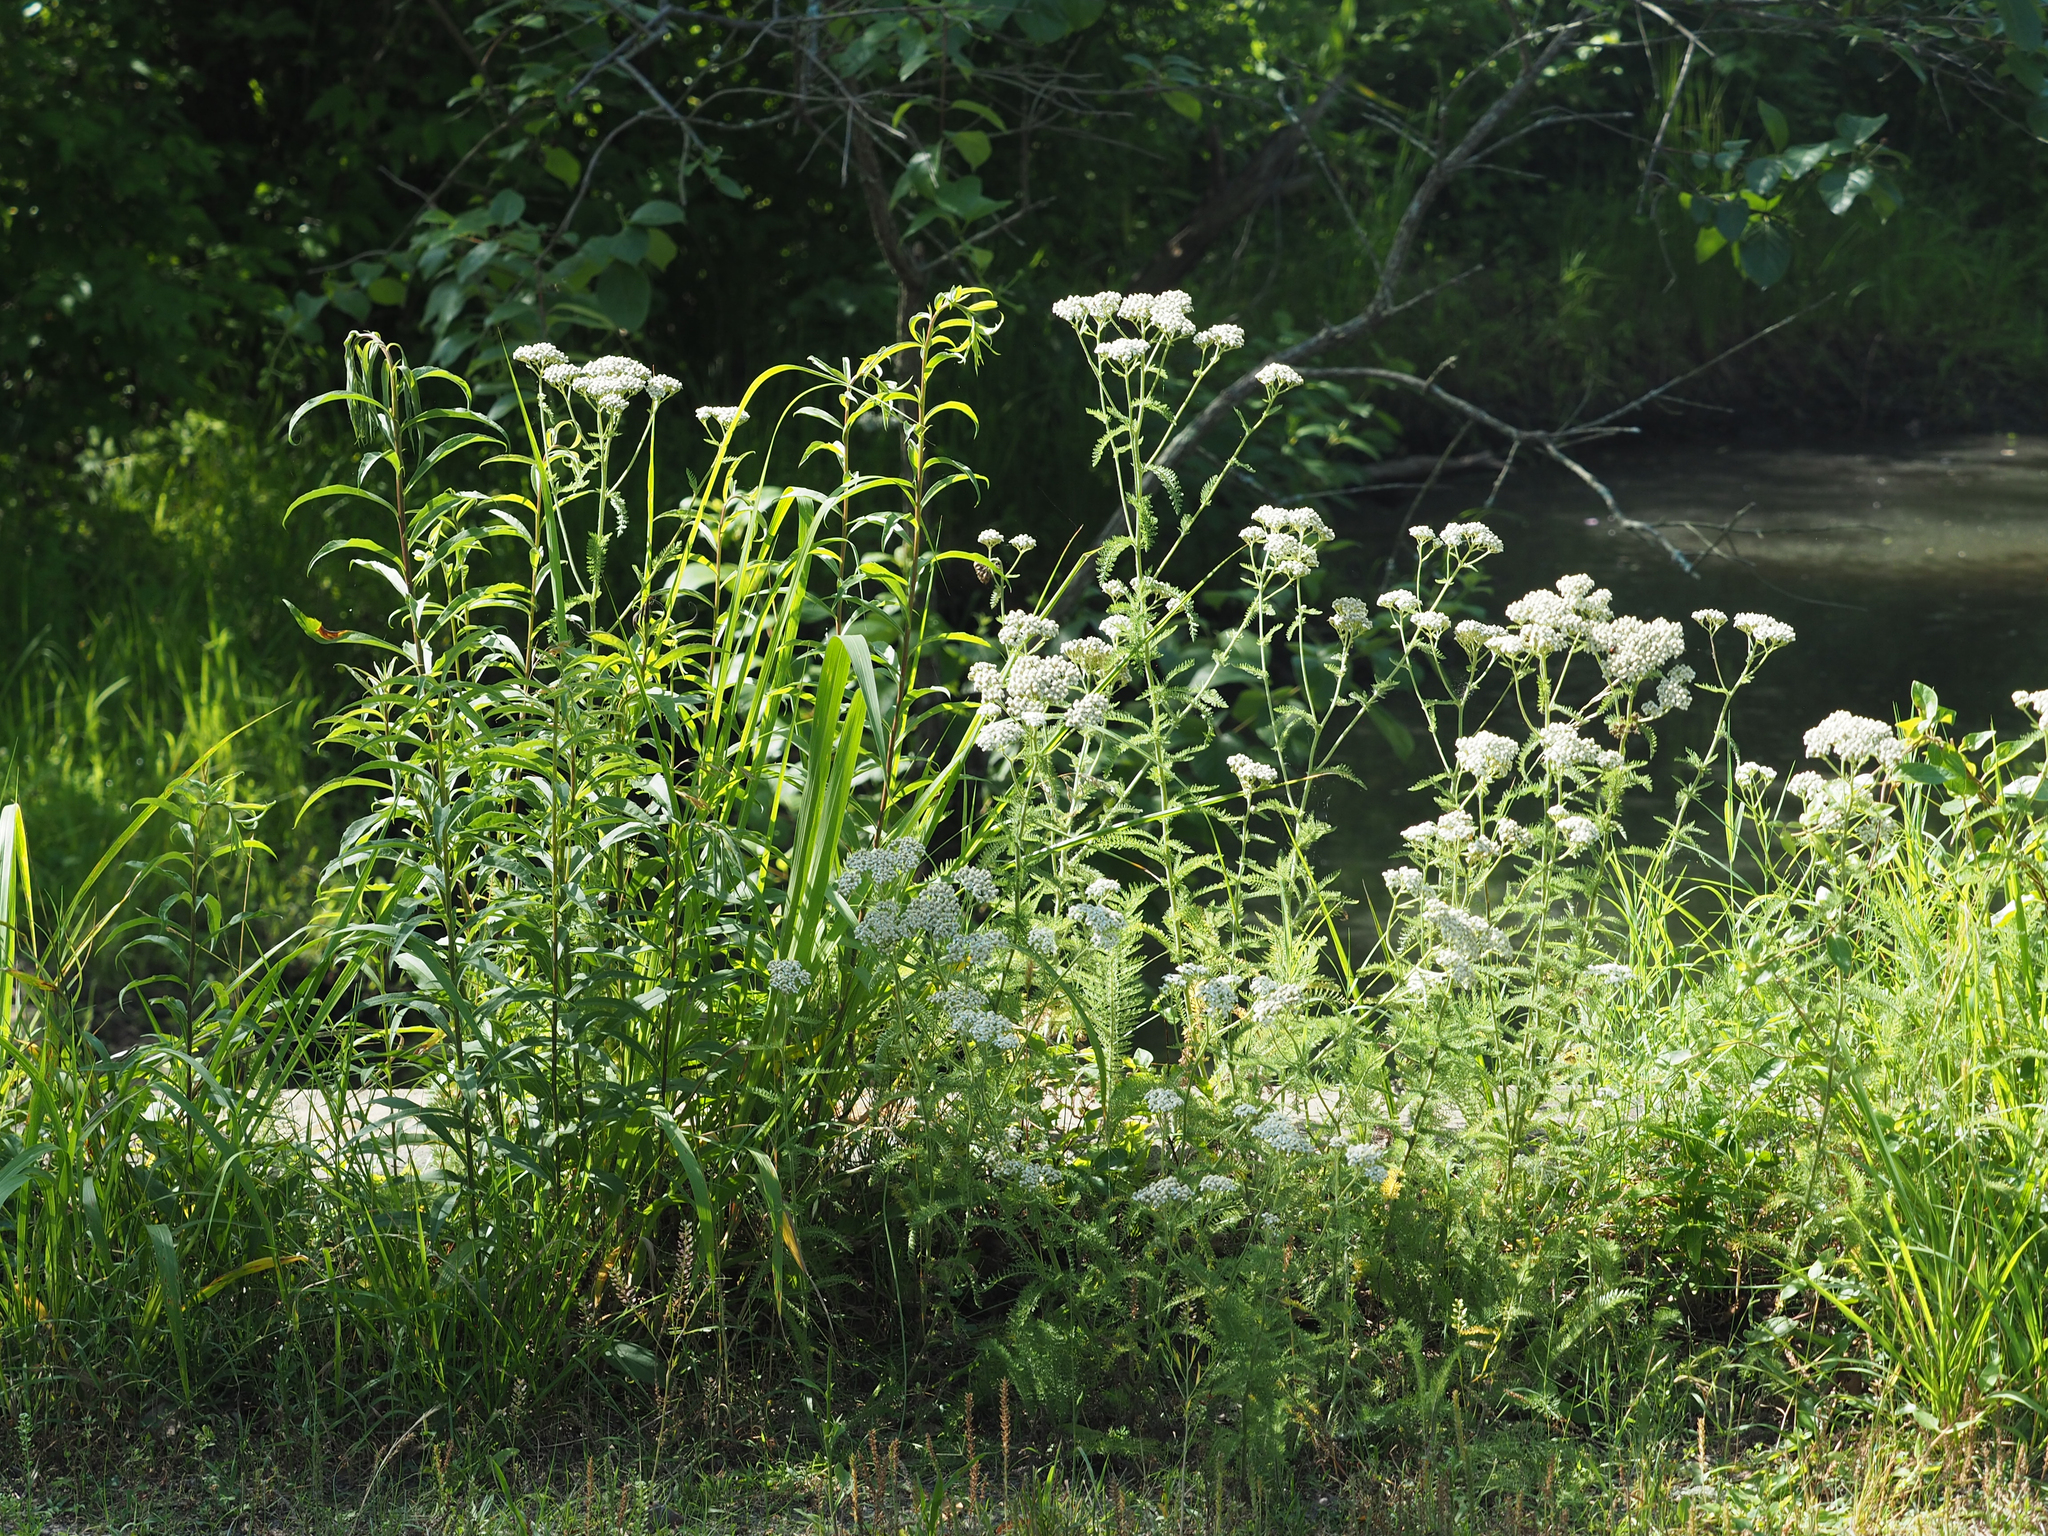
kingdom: Plantae
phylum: Tracheophyta
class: Magnoliopsida
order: Asterales
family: Asteraceae
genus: Achillea
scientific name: Achillea millefolium
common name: Yarrow
